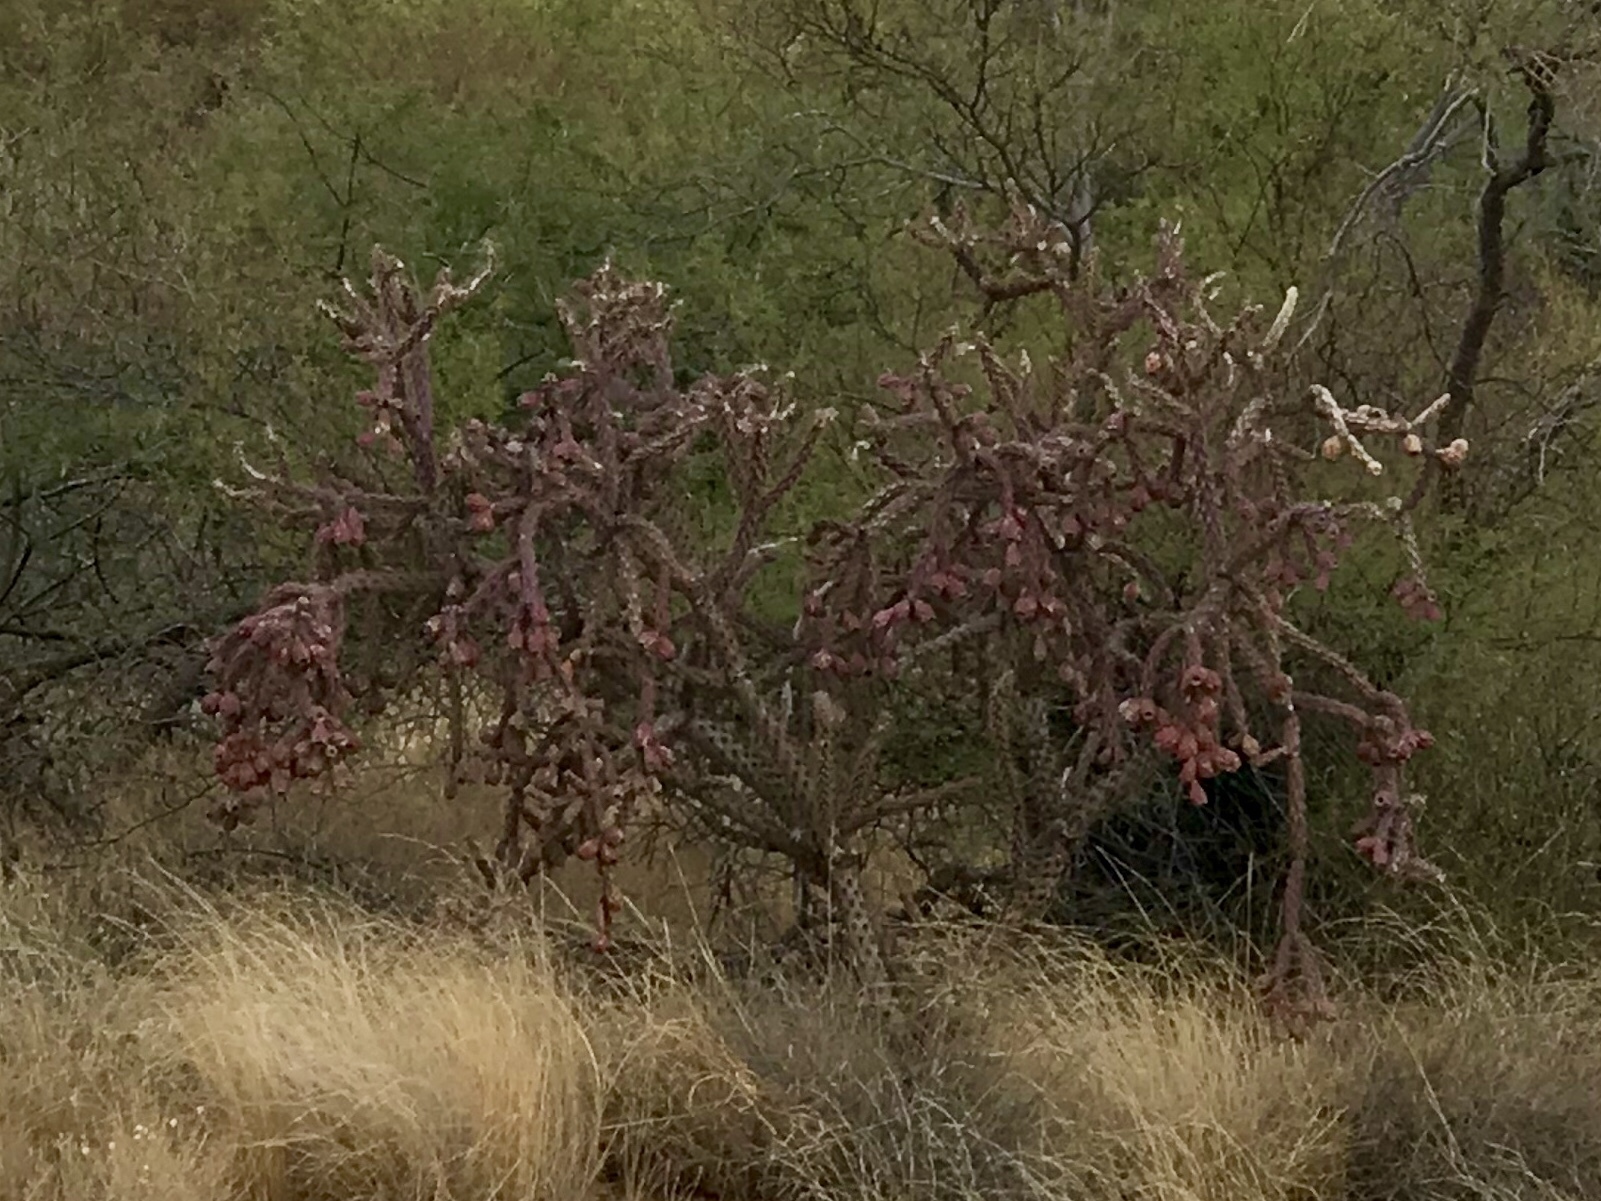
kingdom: Plantae
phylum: Tracheophyta
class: Magnoliopsida
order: Caryophyllales
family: Cactaceae
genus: Cylindropuntia
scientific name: Cylindropuntia thurberi
